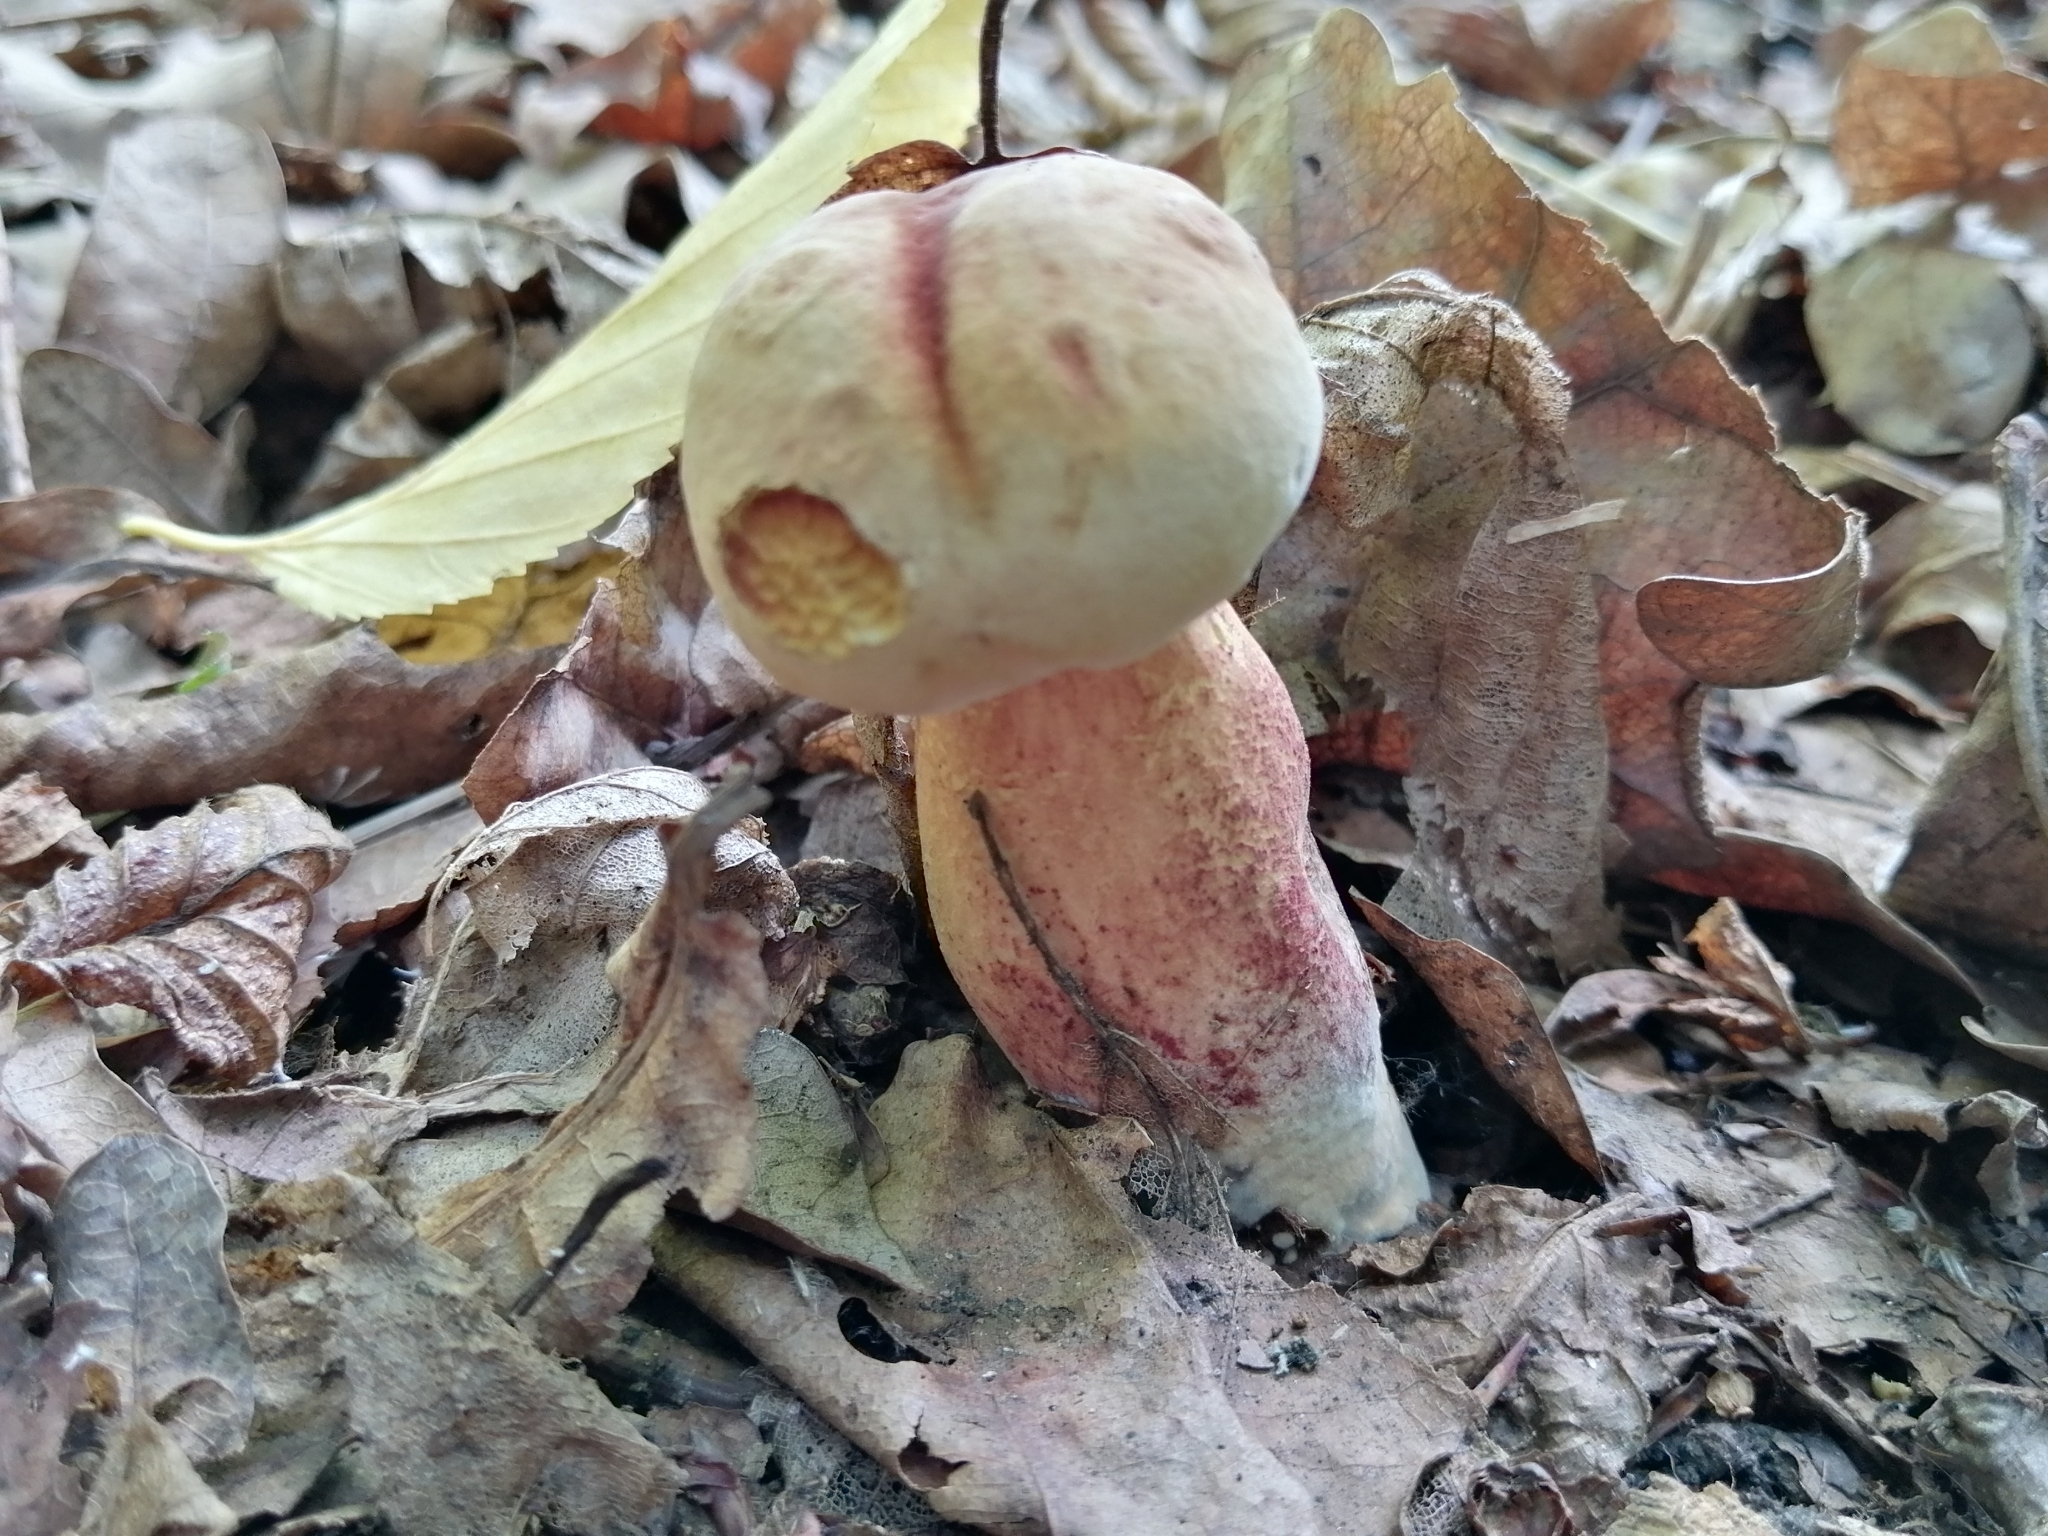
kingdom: Fungi
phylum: Basidiomycota
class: Agaricomycetes
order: Boletales
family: Boletaceae
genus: Suillellus
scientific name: Suillellus queletii
